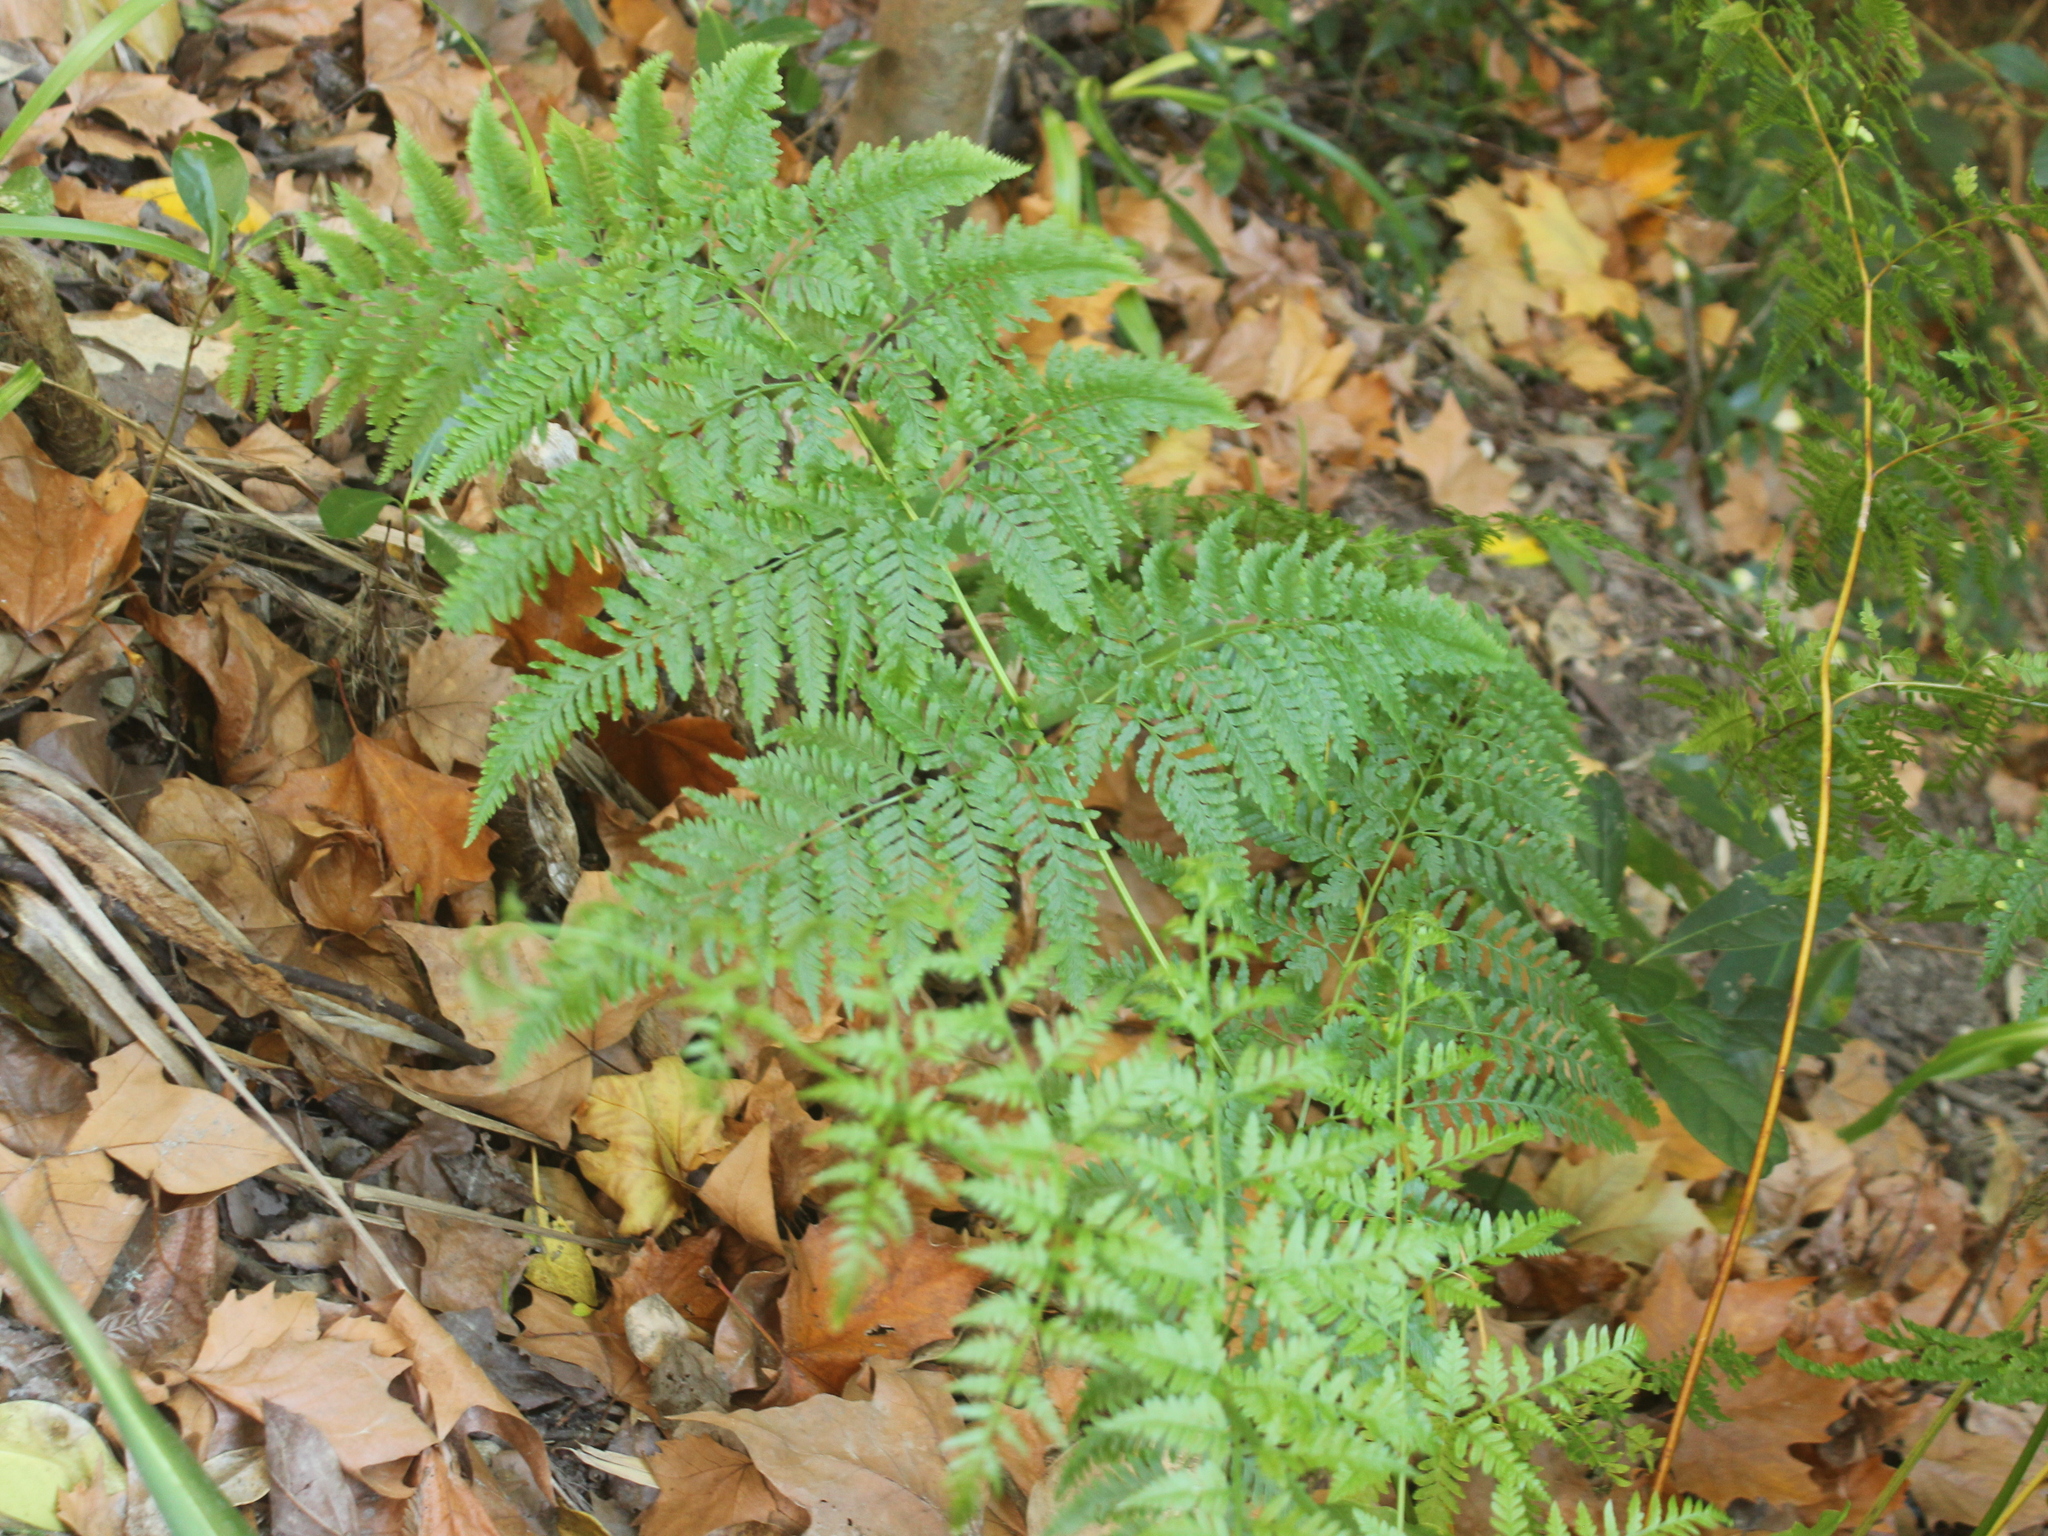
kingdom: Plantae
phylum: Tracheophyta
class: Polypodiopsida
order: Polypodiales
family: Pteridaceae
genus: Pteris
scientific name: Pteris tremula
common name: Australian brake
